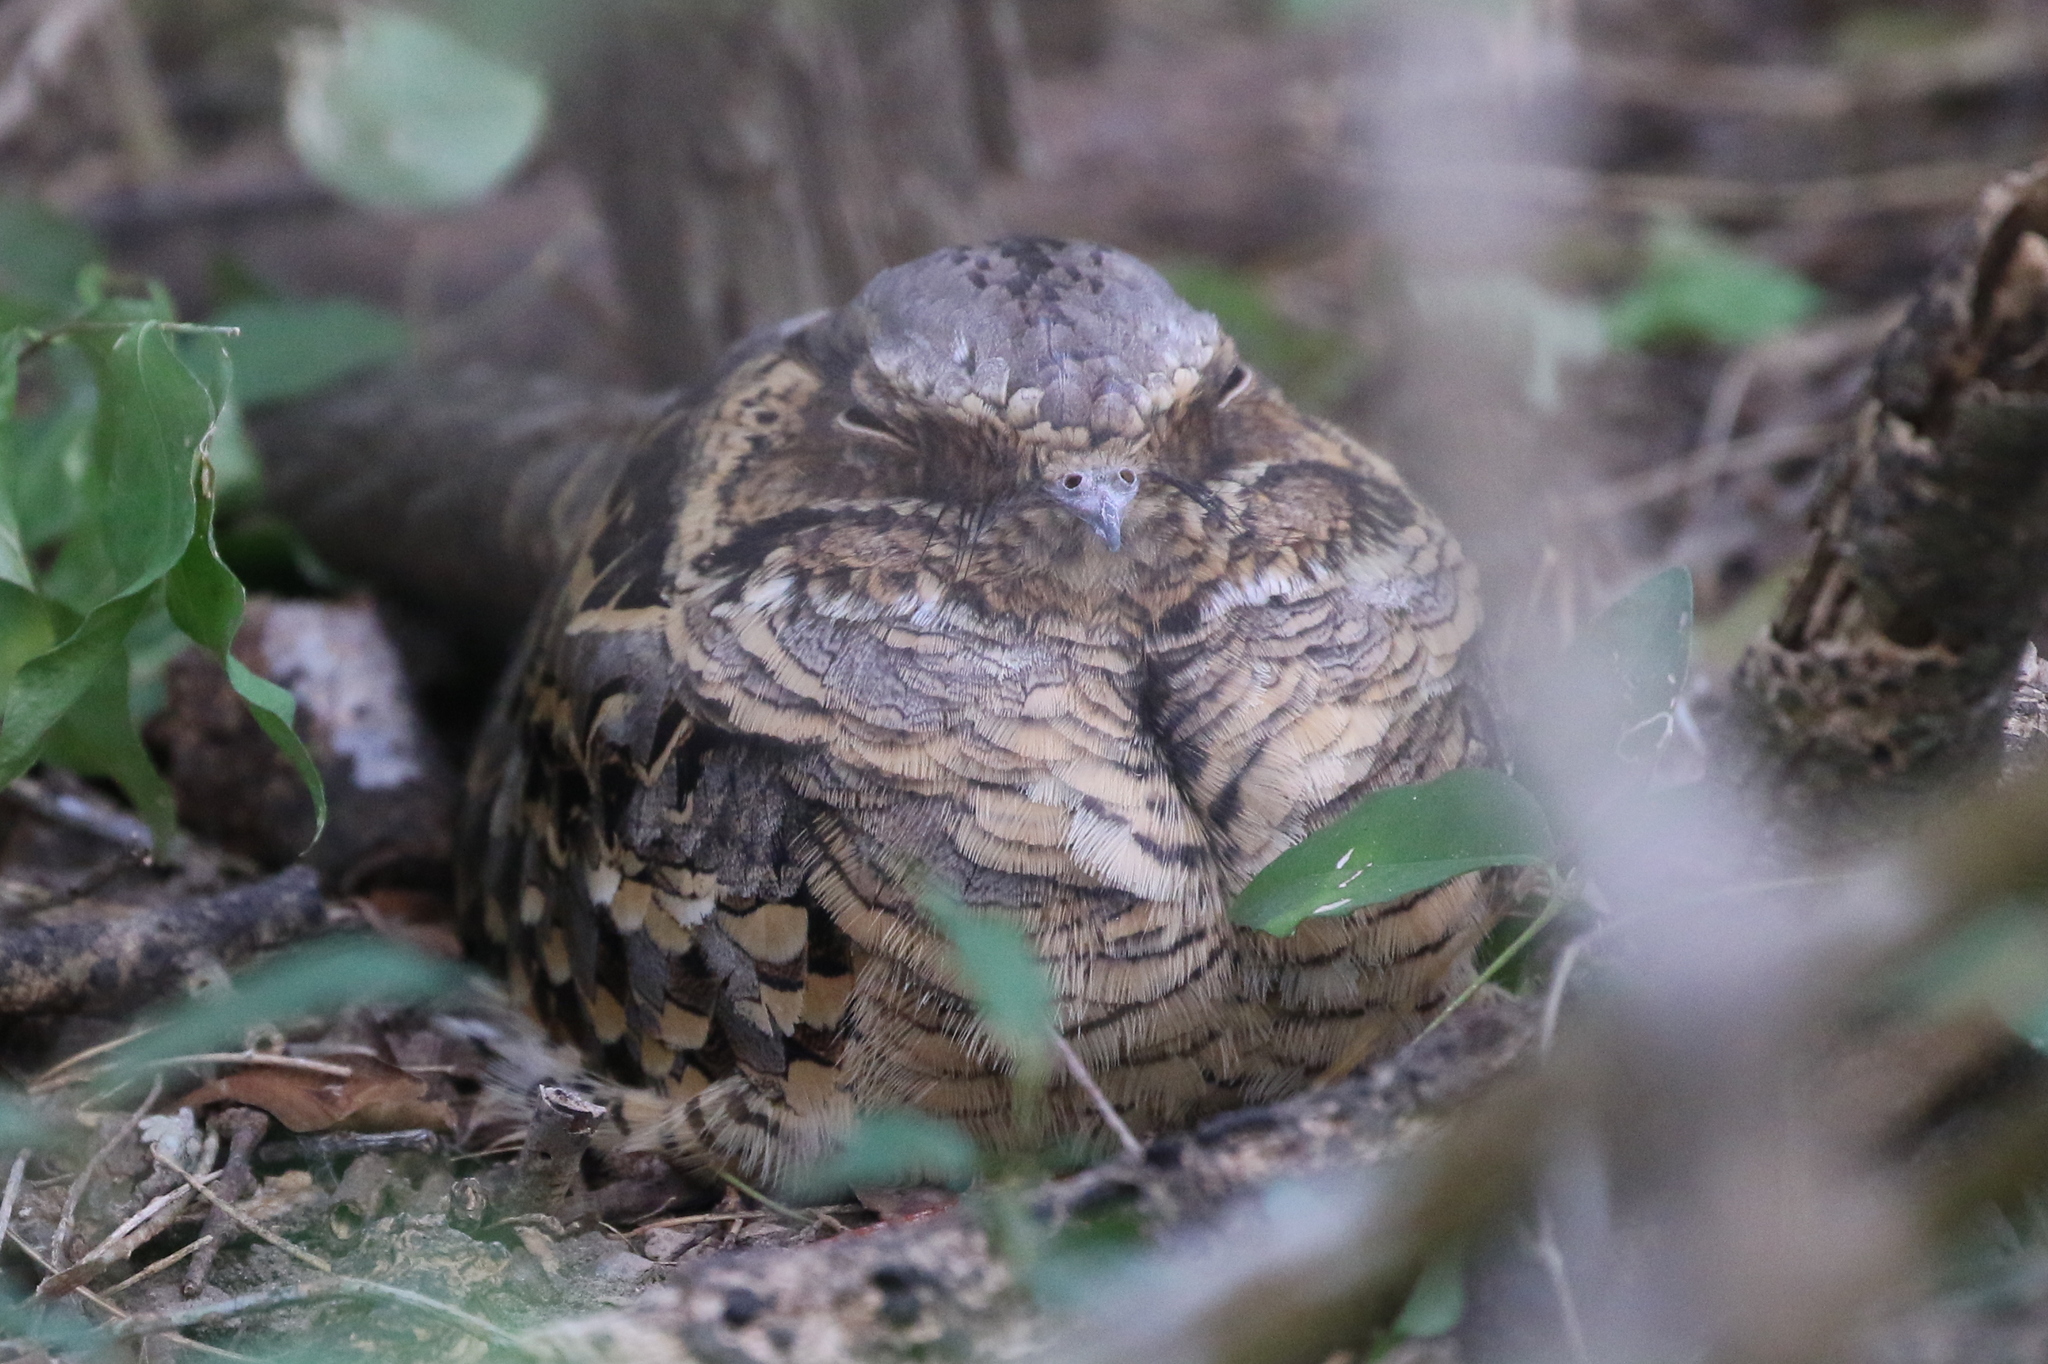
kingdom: Animalia
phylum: Chordata
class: Aves
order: Caprimulgiformes
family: Caprimulgidae
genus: Nyctidromus
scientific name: Nyctidromus albicollis
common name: Pauraque
